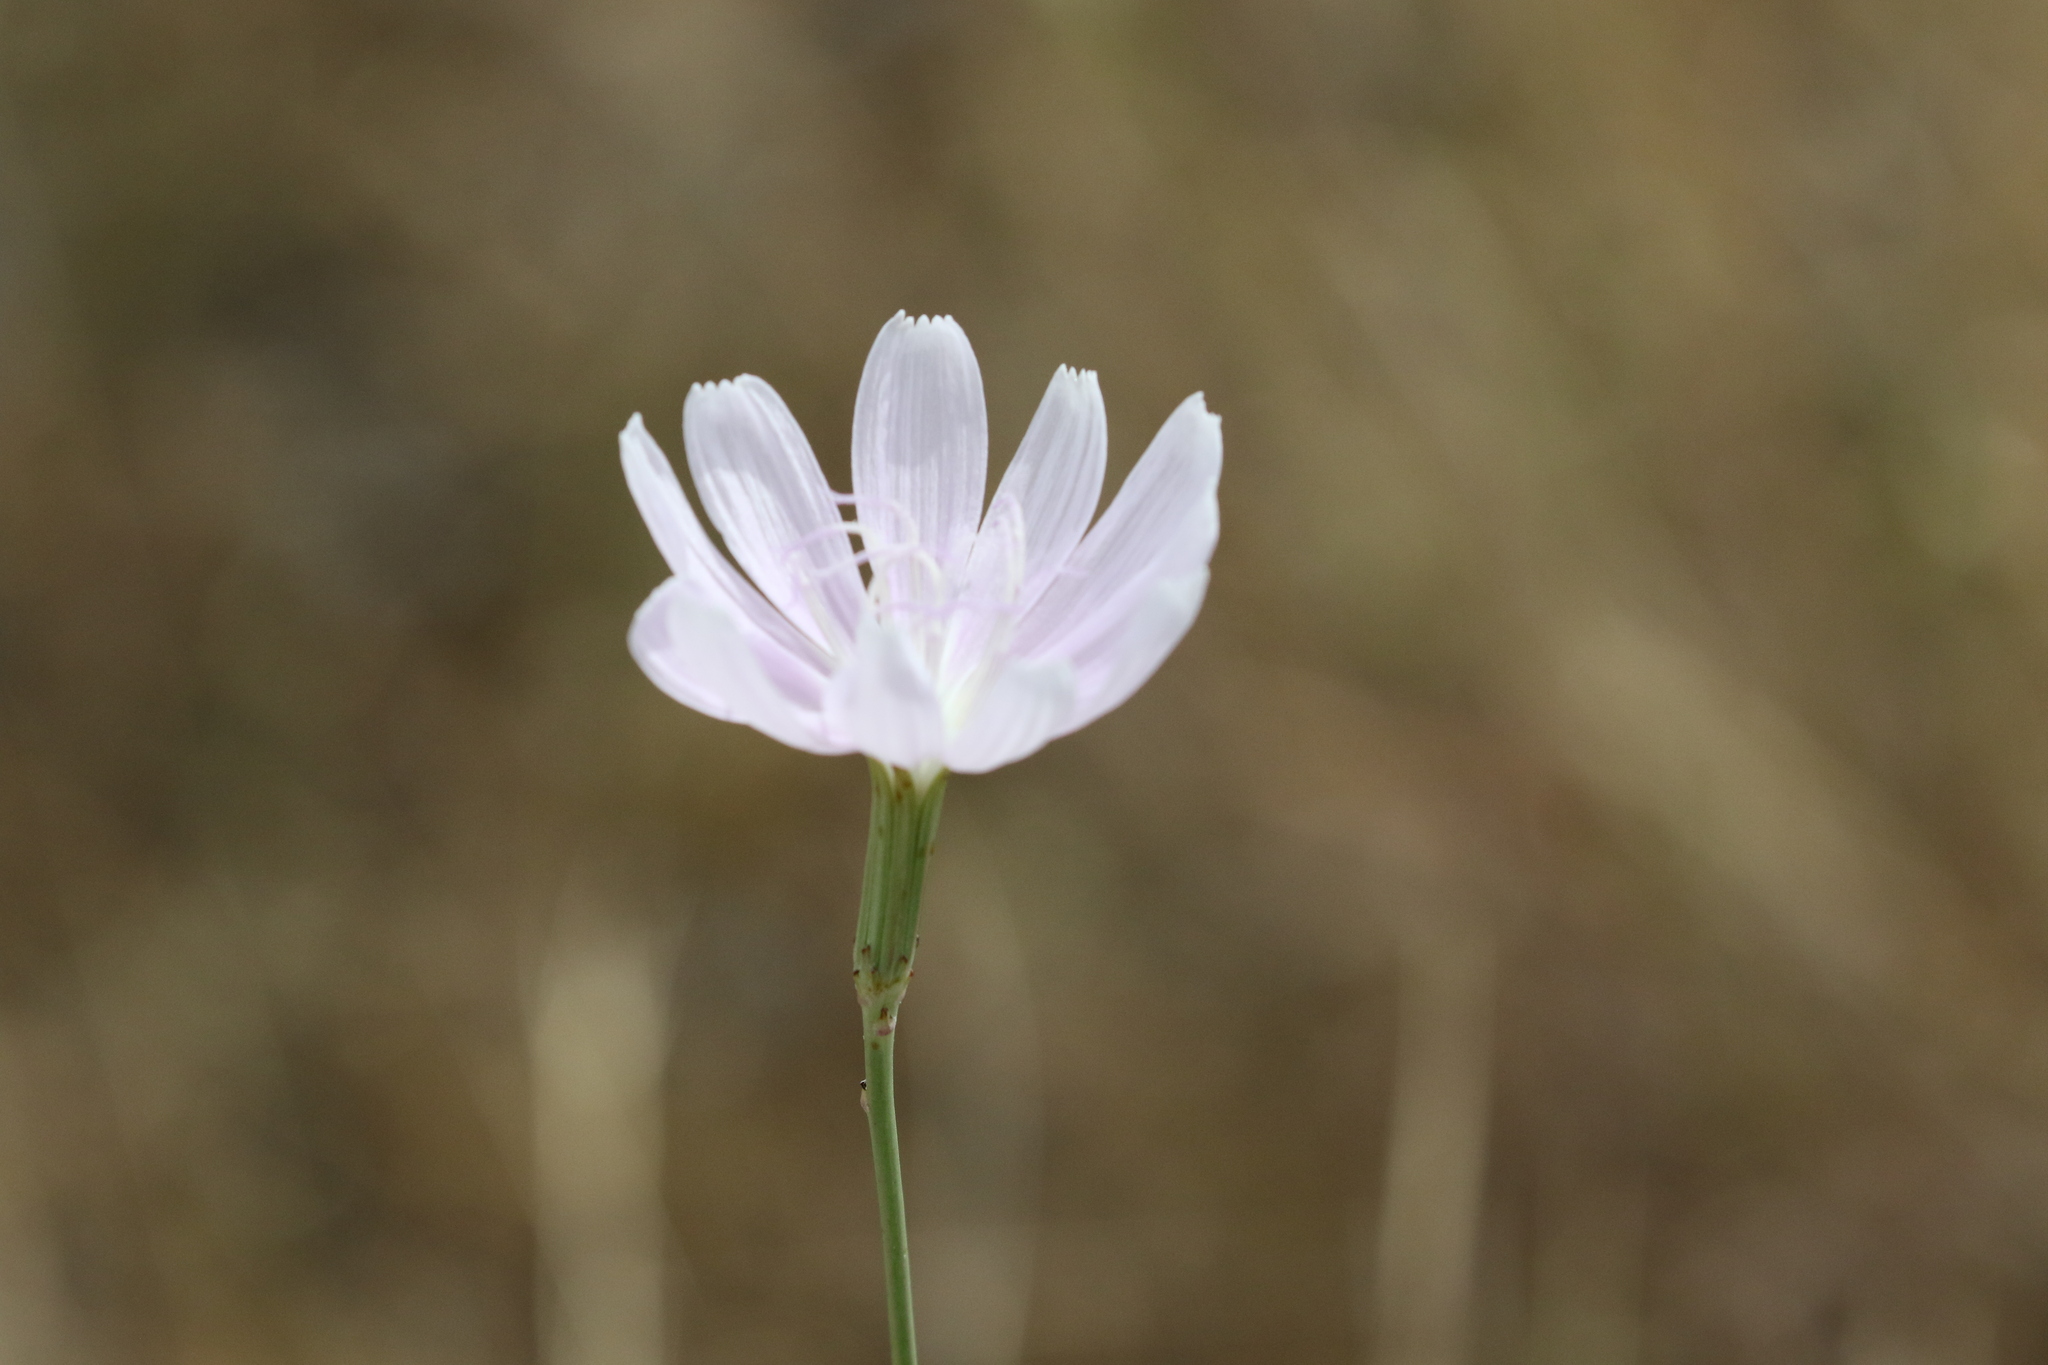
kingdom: Plantae
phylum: Tracheophyta
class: Magnoliopsida
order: Asterales
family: Asteraceae
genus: Lygodesmia
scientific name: Lygodesmia texana
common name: Texas skeleton-plant
